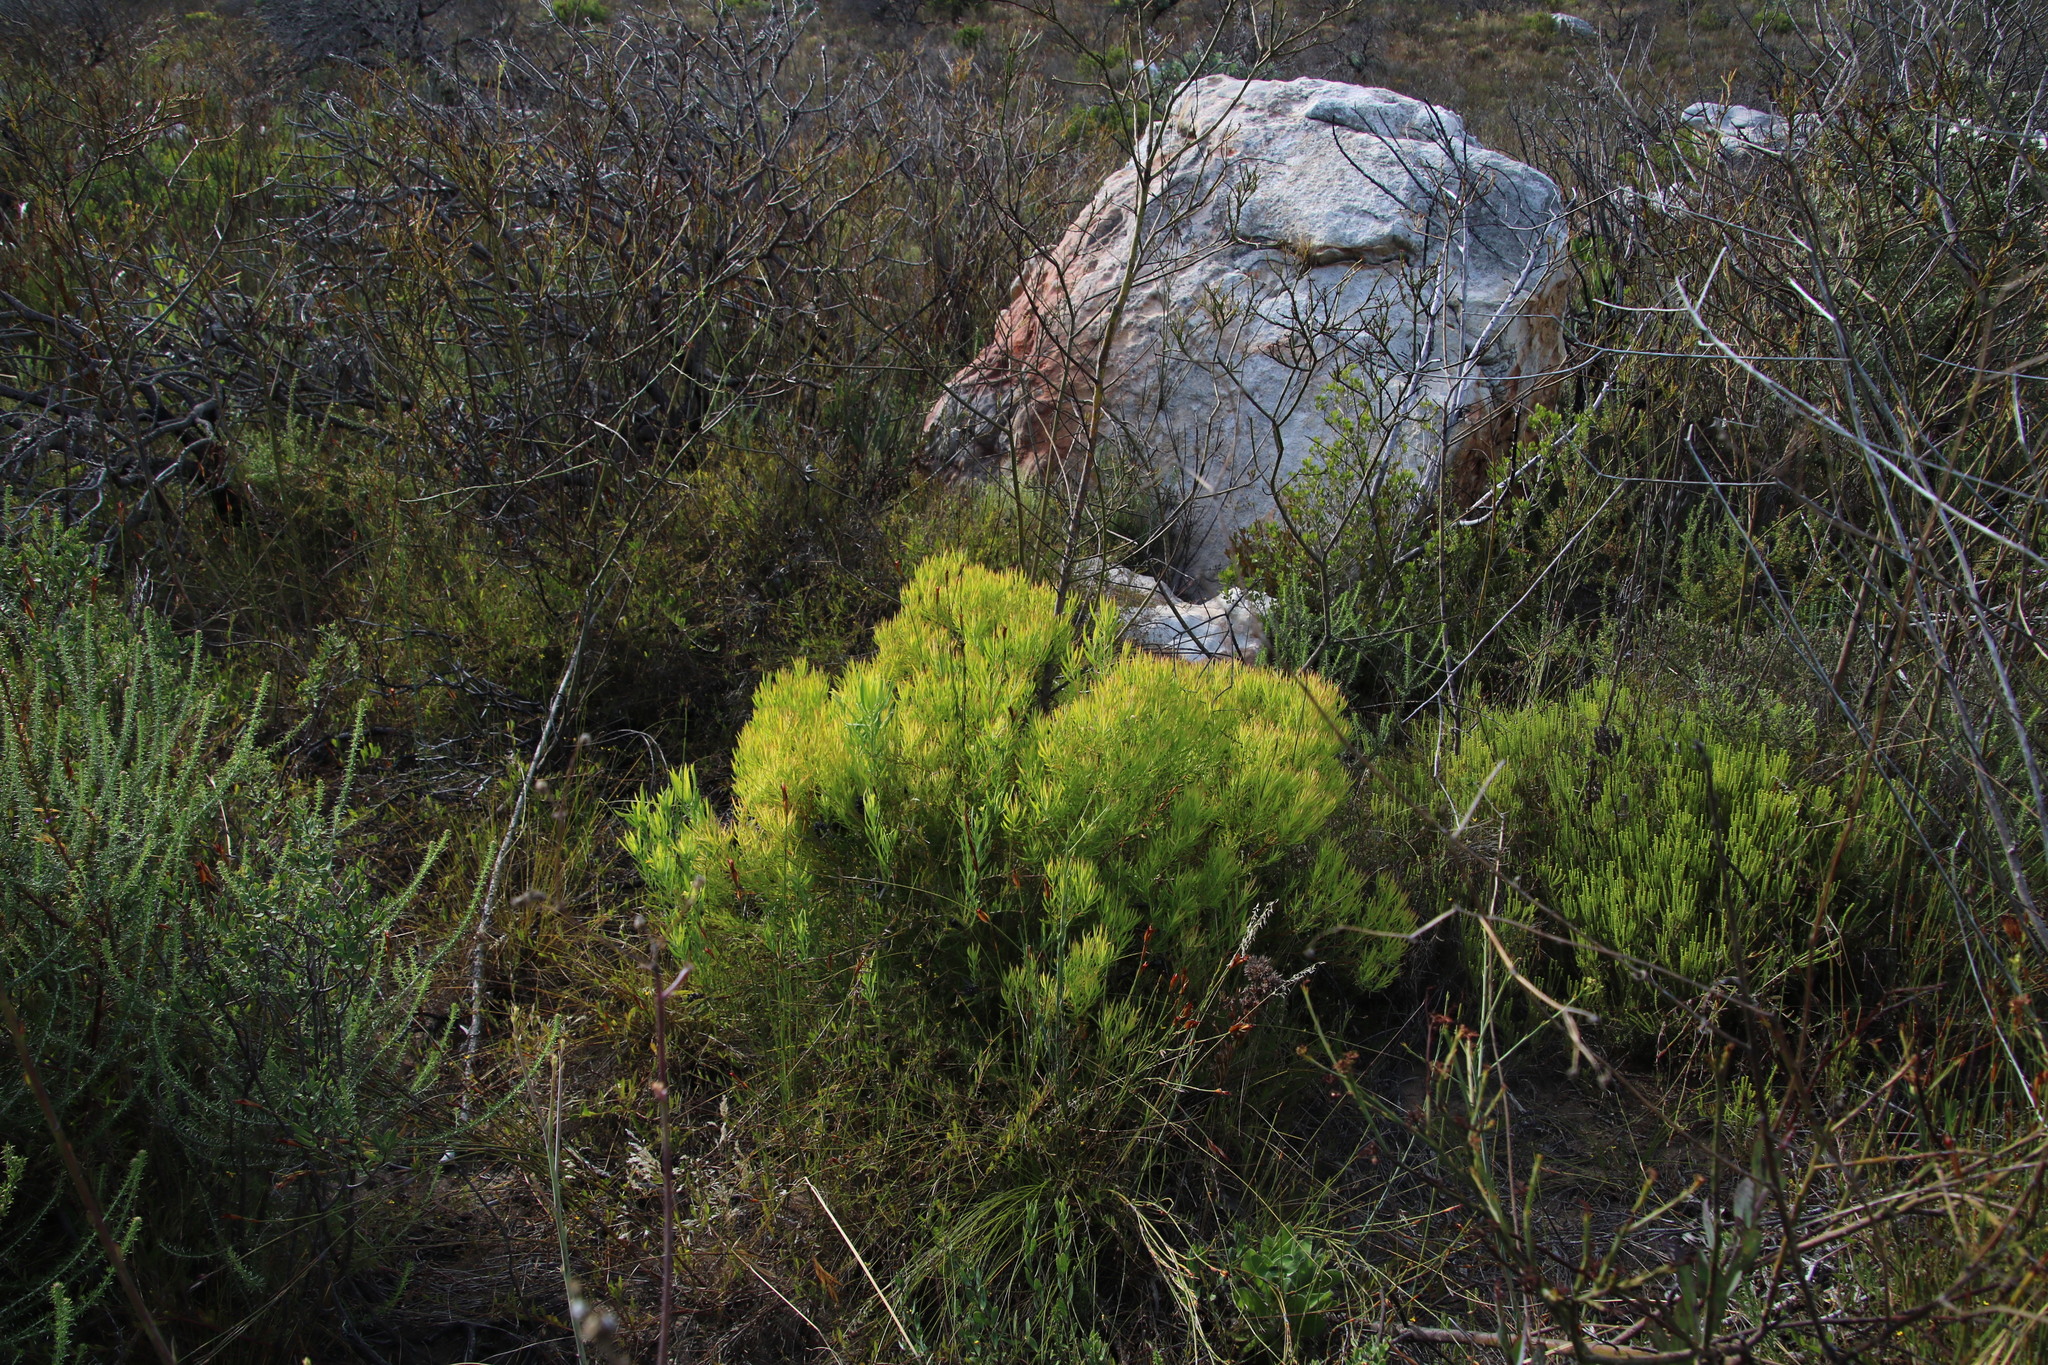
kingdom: Plantae
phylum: Tracheophyta
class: Magnoliopsida
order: Proteales
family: Proteaceae
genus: Leucadendron
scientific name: Leucadendron salignum
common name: Common sunshine conebush
